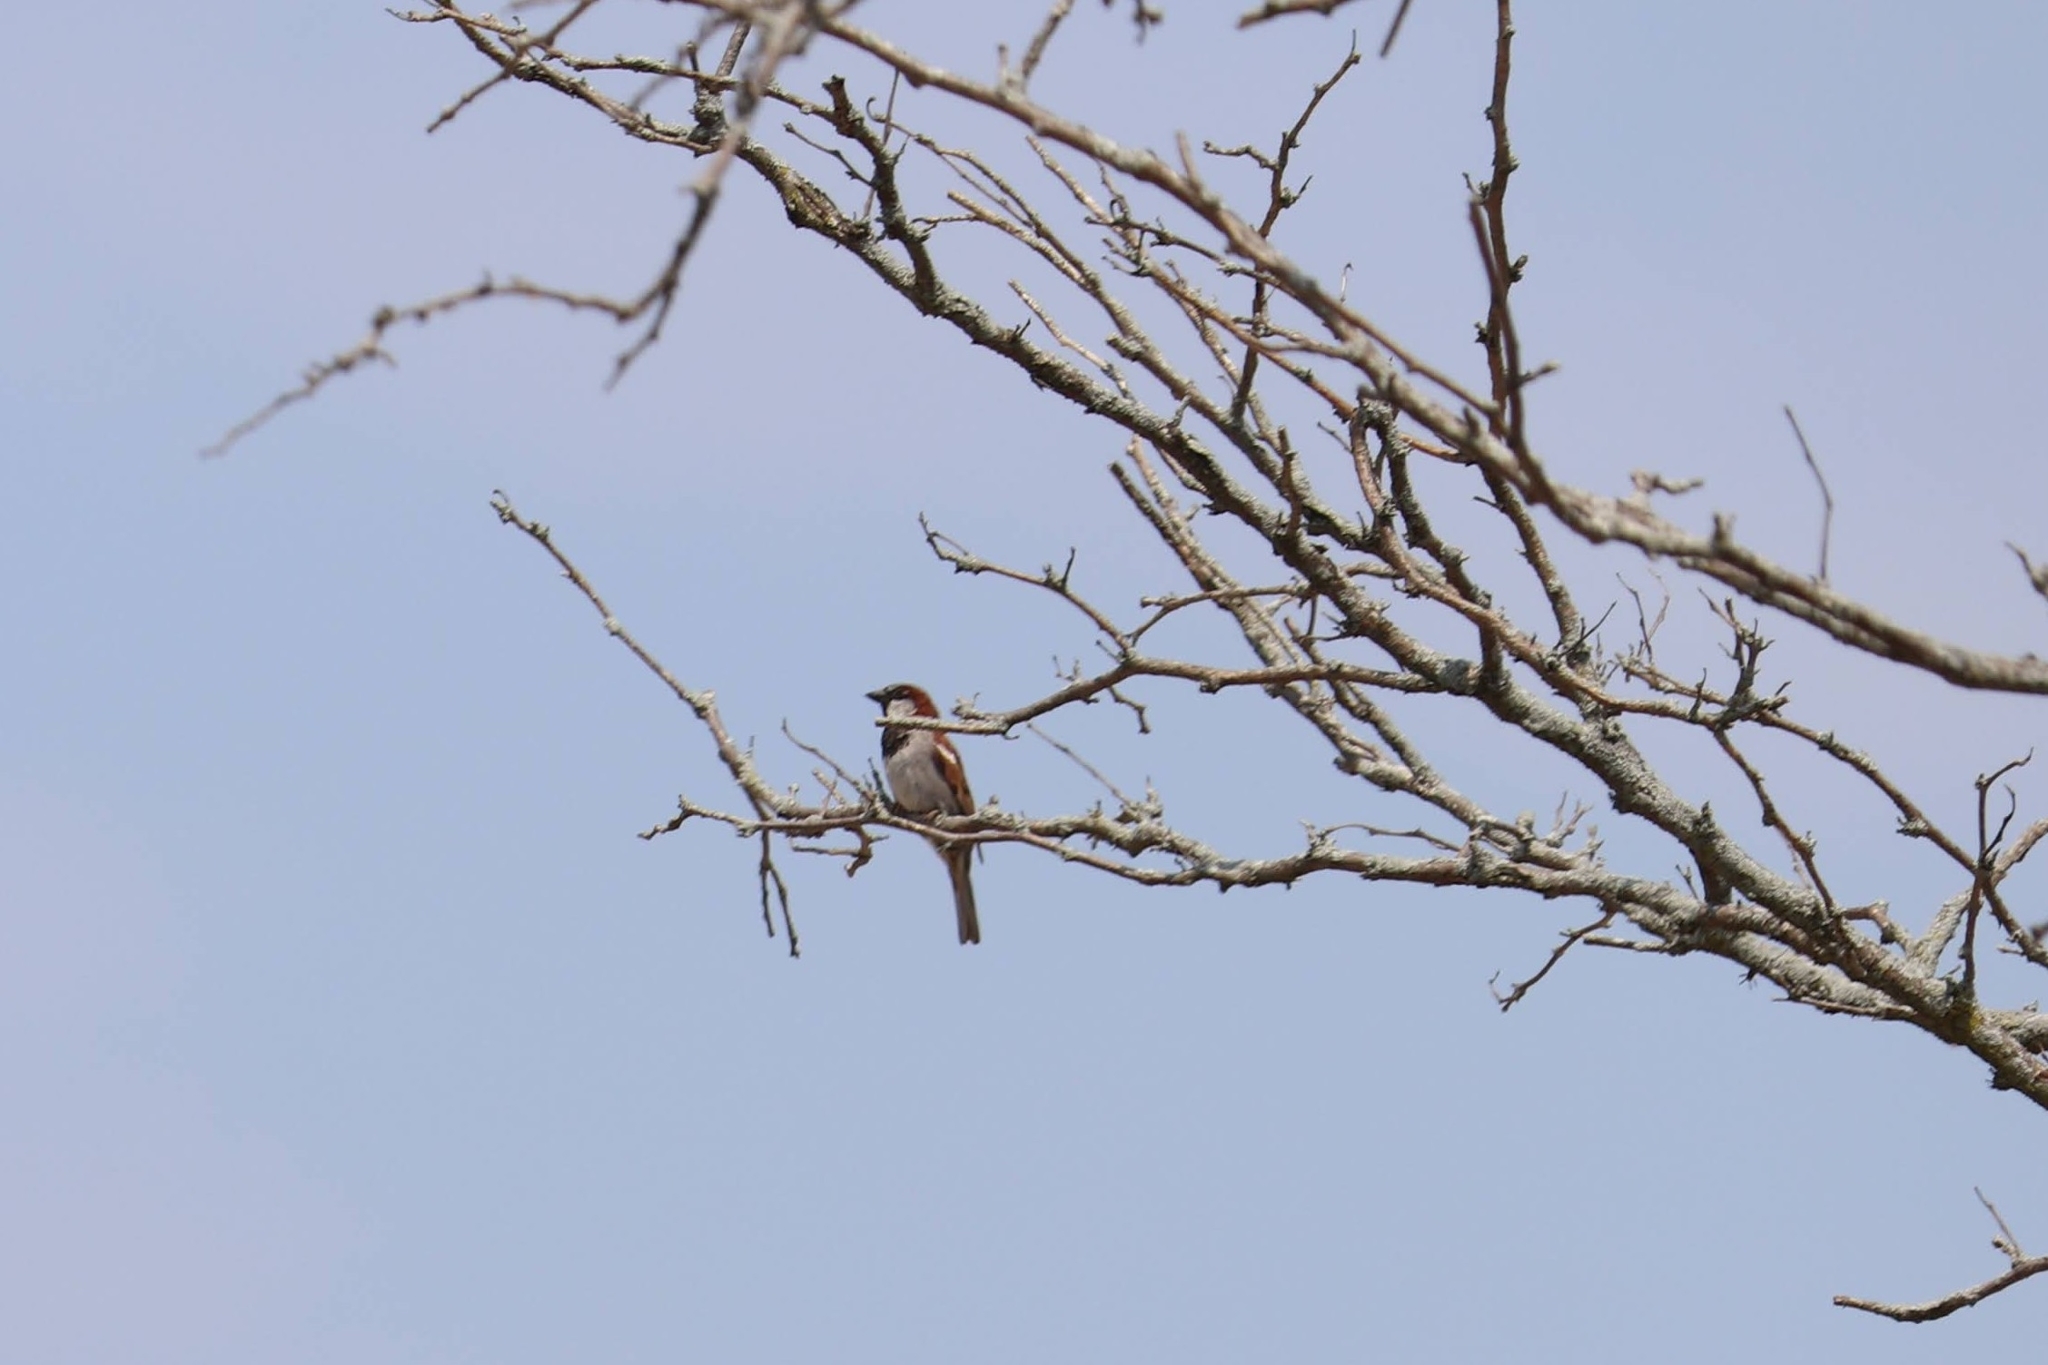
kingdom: Animalia
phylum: Chordata
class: Aves
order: Passeriformes
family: Passeridae
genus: Passer
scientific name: Passer domesticus
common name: House sparrow
